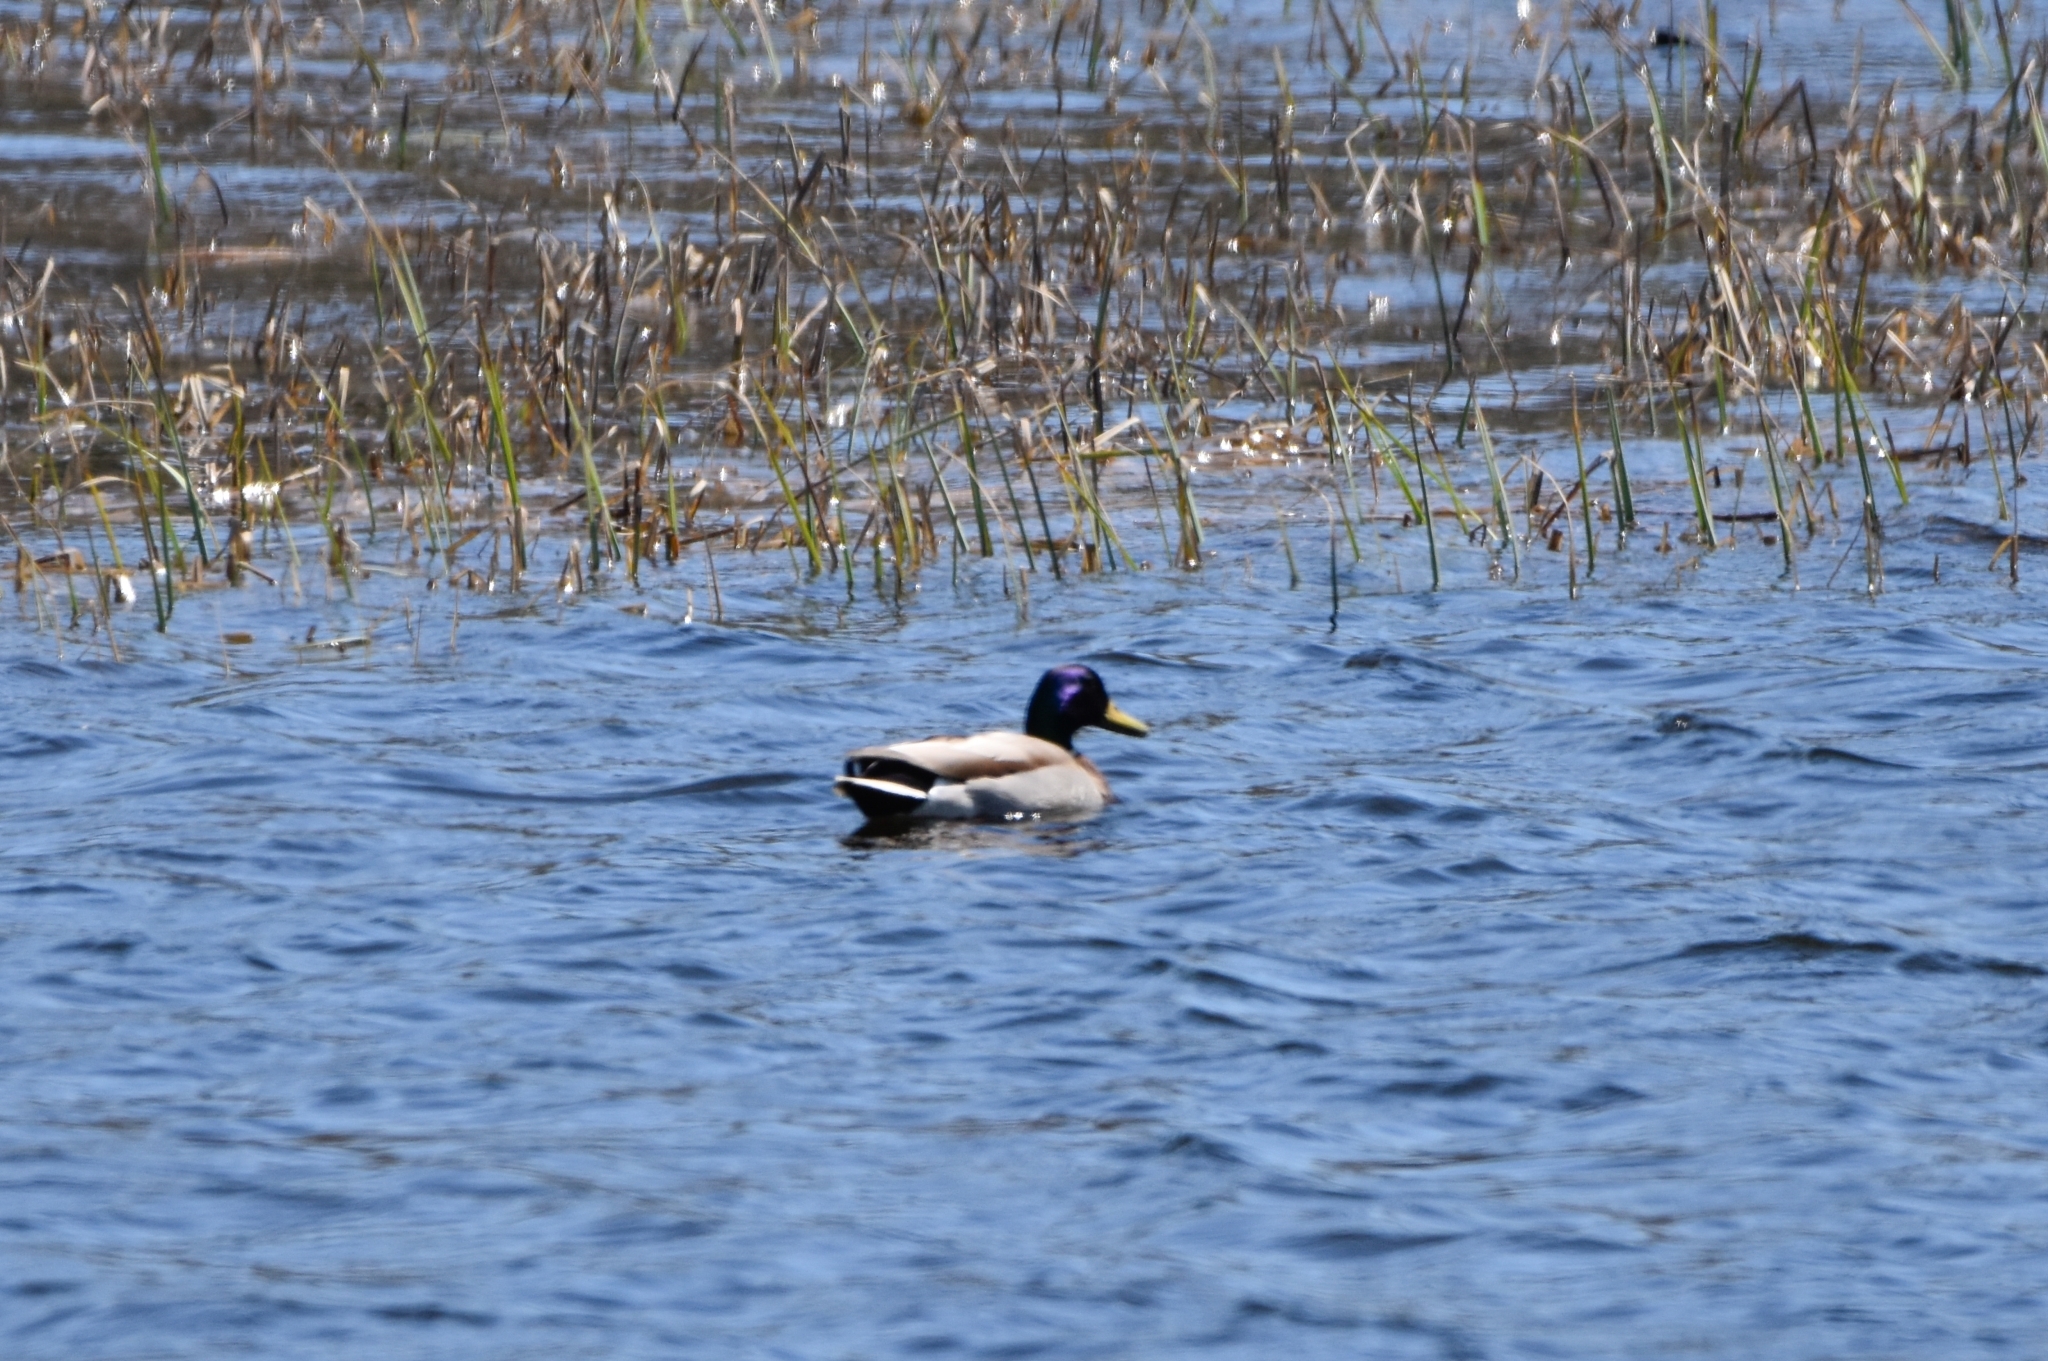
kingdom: Animalia
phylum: Chordata
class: Aves
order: Anseriformes
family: Anatidae
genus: Anas
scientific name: Anas platyrhynchos
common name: Mallard
